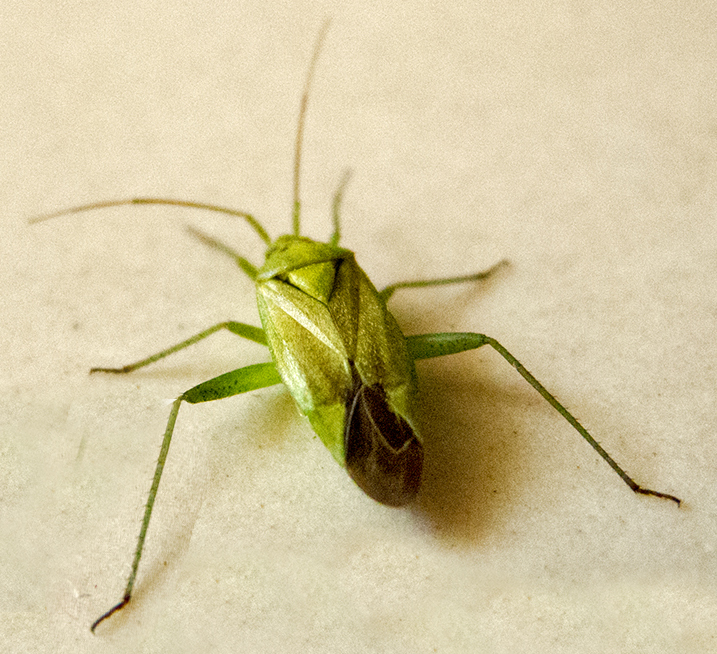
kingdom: Animalia
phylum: Arthropoda
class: Insecta
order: Hemiptera
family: Miridae
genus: Closterotomus
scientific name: Closterotomus norvegicus
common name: Plant bug
